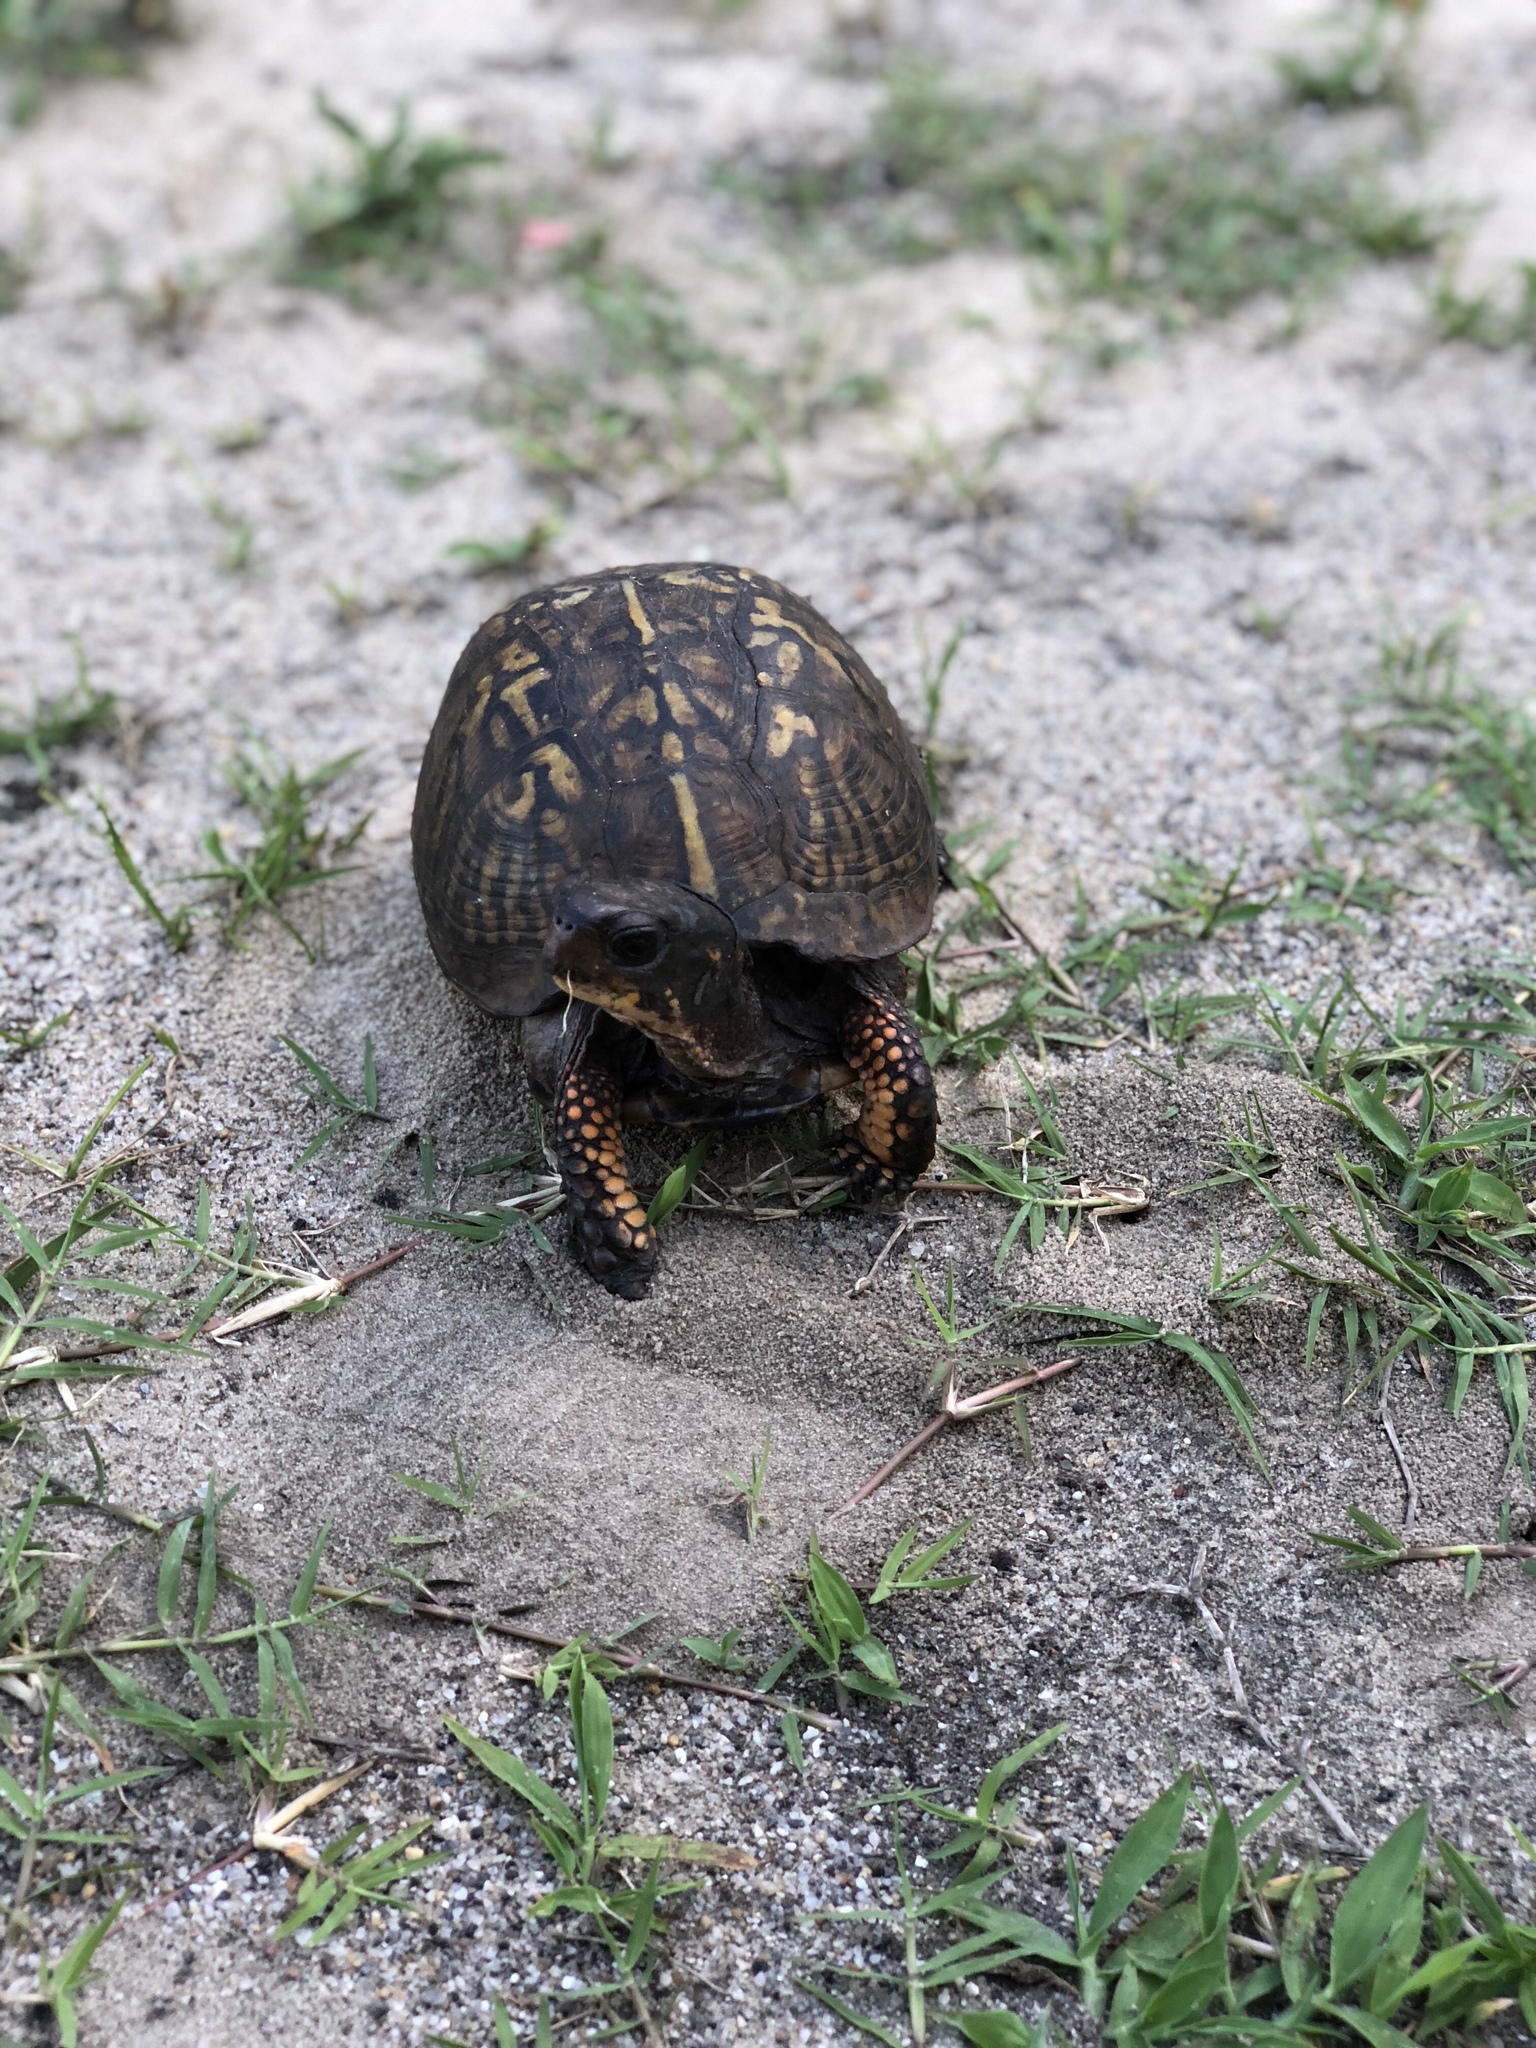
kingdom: Animalia
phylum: Chordata
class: Testudines
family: Emydidae
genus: Terrapene
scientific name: Terrapene carolina
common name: Common box turtle
